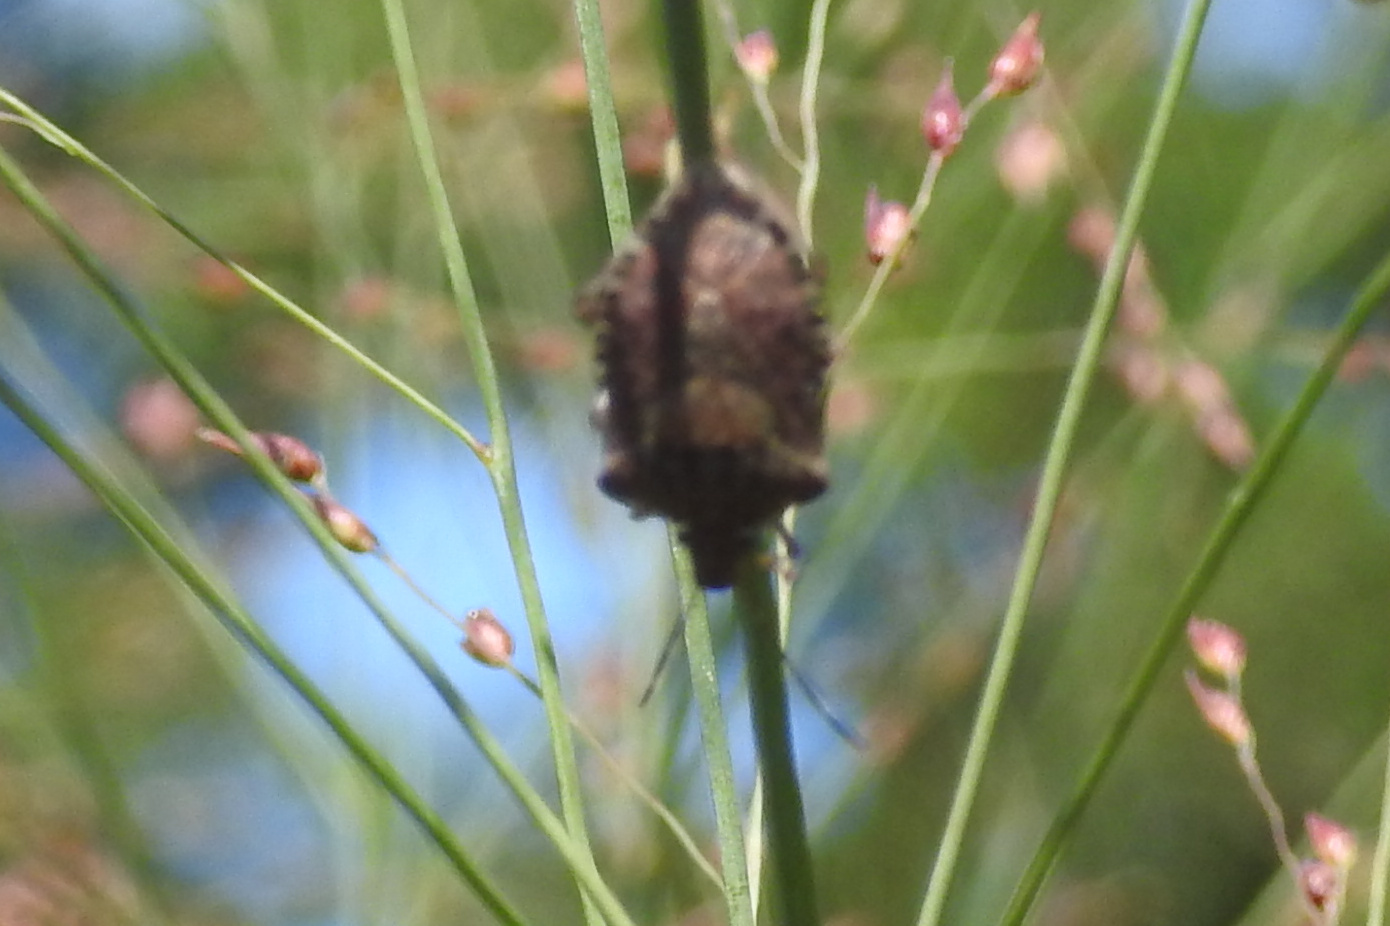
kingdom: Animalia
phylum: Arthropoda
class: Insecta
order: Hemiptera
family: Pentatomidae
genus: Halyomorpha
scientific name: Halyomorpha halys
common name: Brown marmorated stink bug
